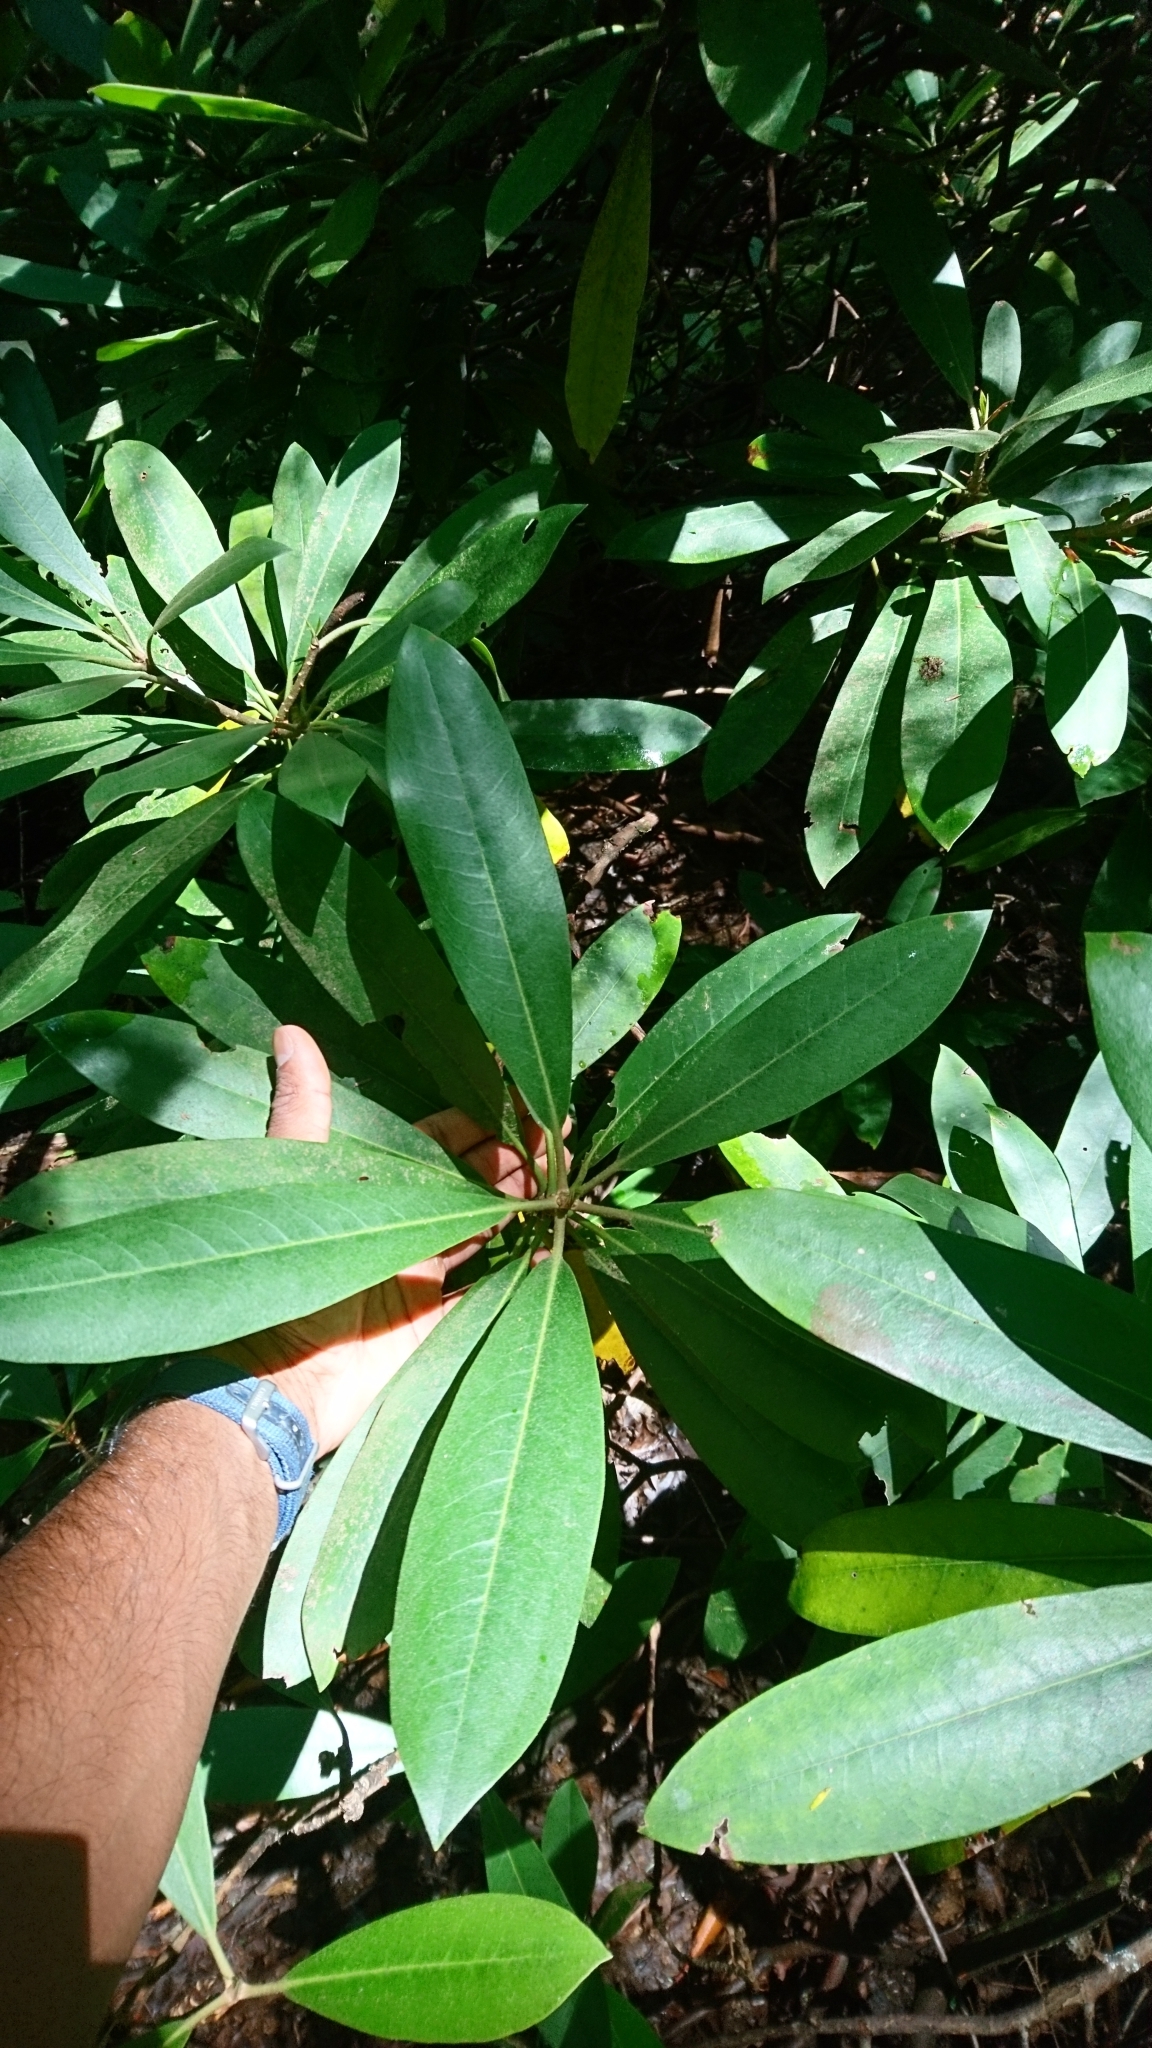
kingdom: Plantae
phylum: Tracheophyta
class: Magnoliopsida
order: Ericales
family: Ericaceae
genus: Rhododendron
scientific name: Rhododendron maximum
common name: Great rhododendron
